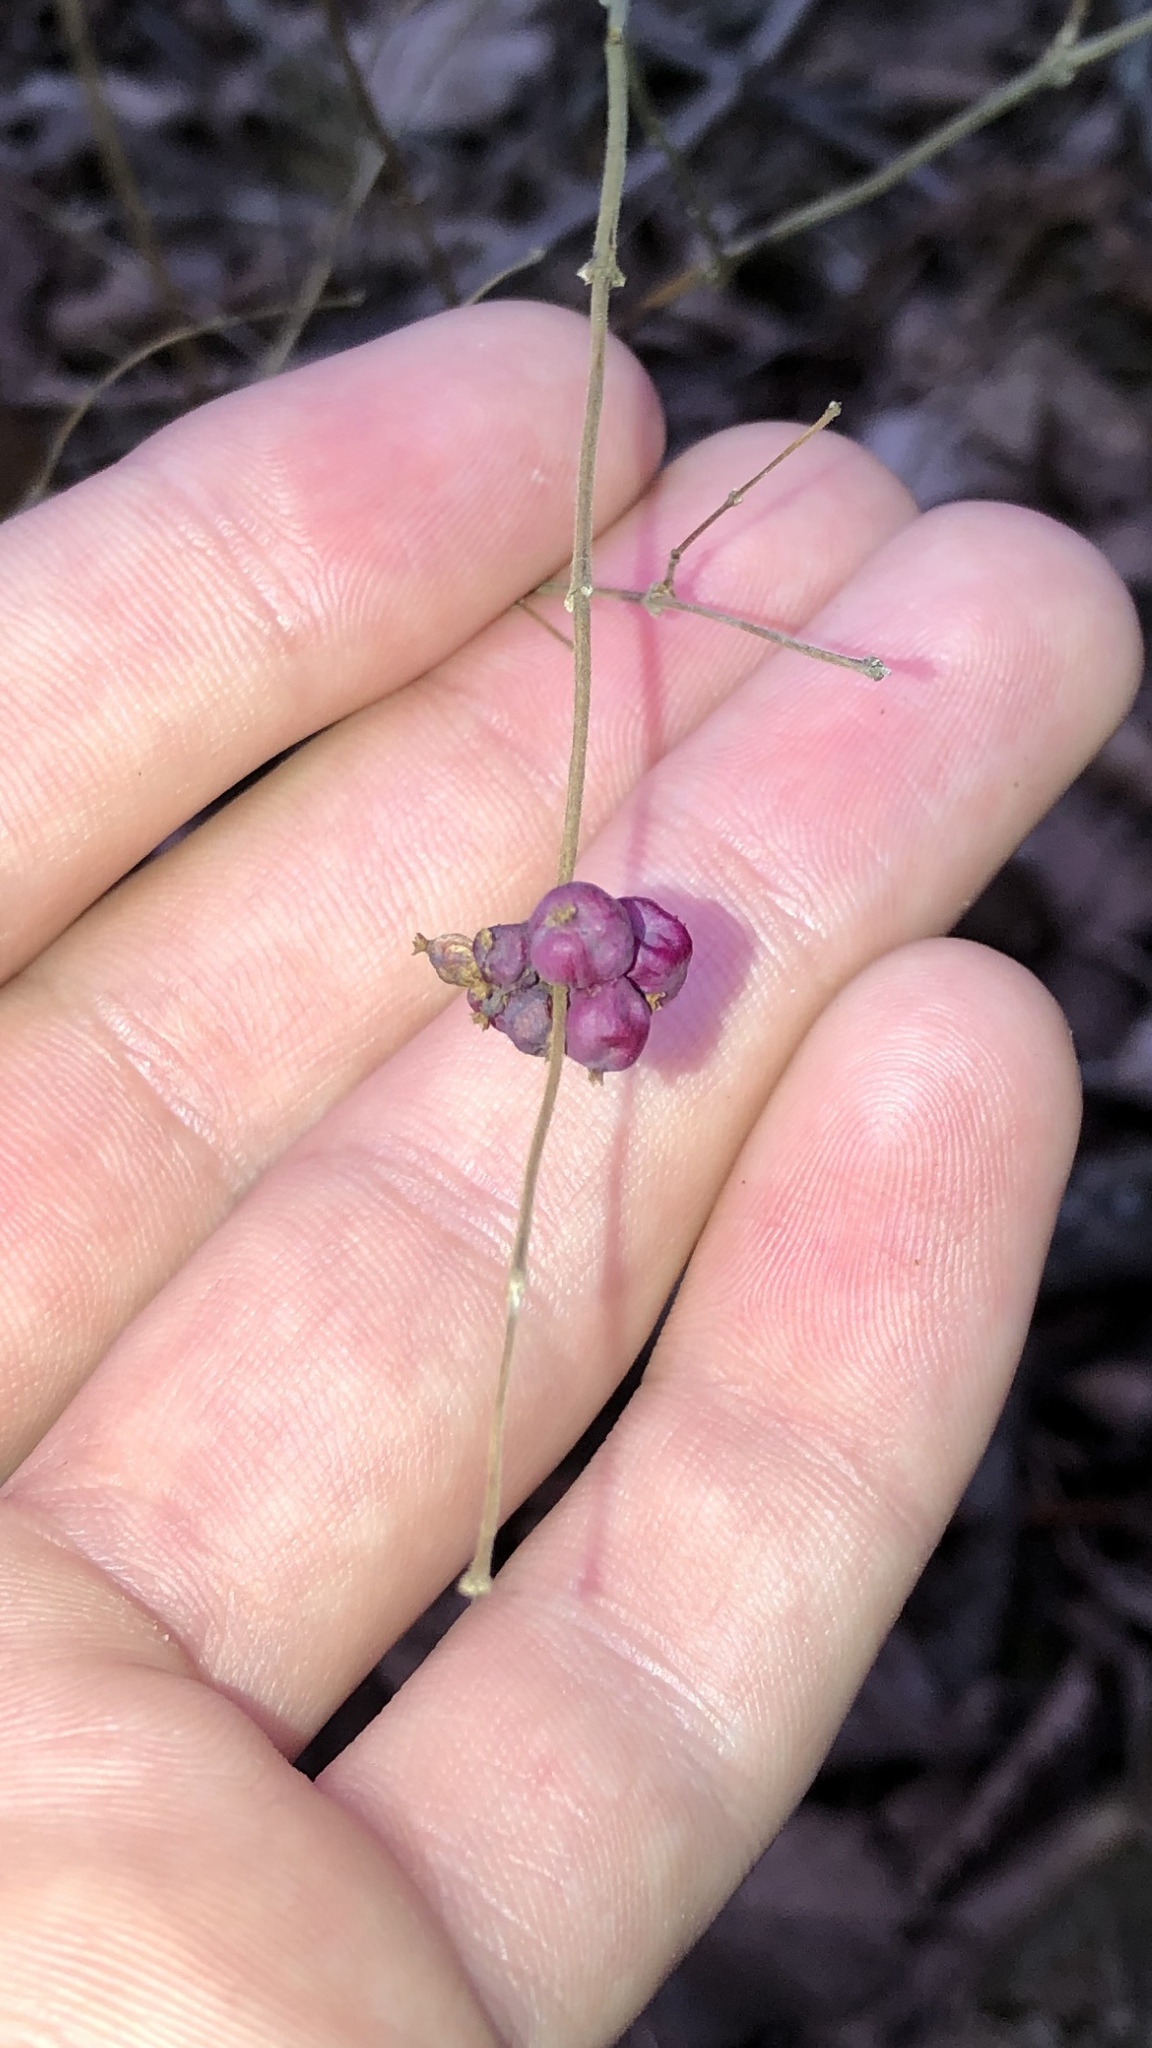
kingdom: Plantae
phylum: Tracheophyta
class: Magnoliopsida
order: Dipsacales
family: Caprifoliaceae
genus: Symphoricarpos
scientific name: Symphoricarpos orbiculatus
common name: Coralberry
